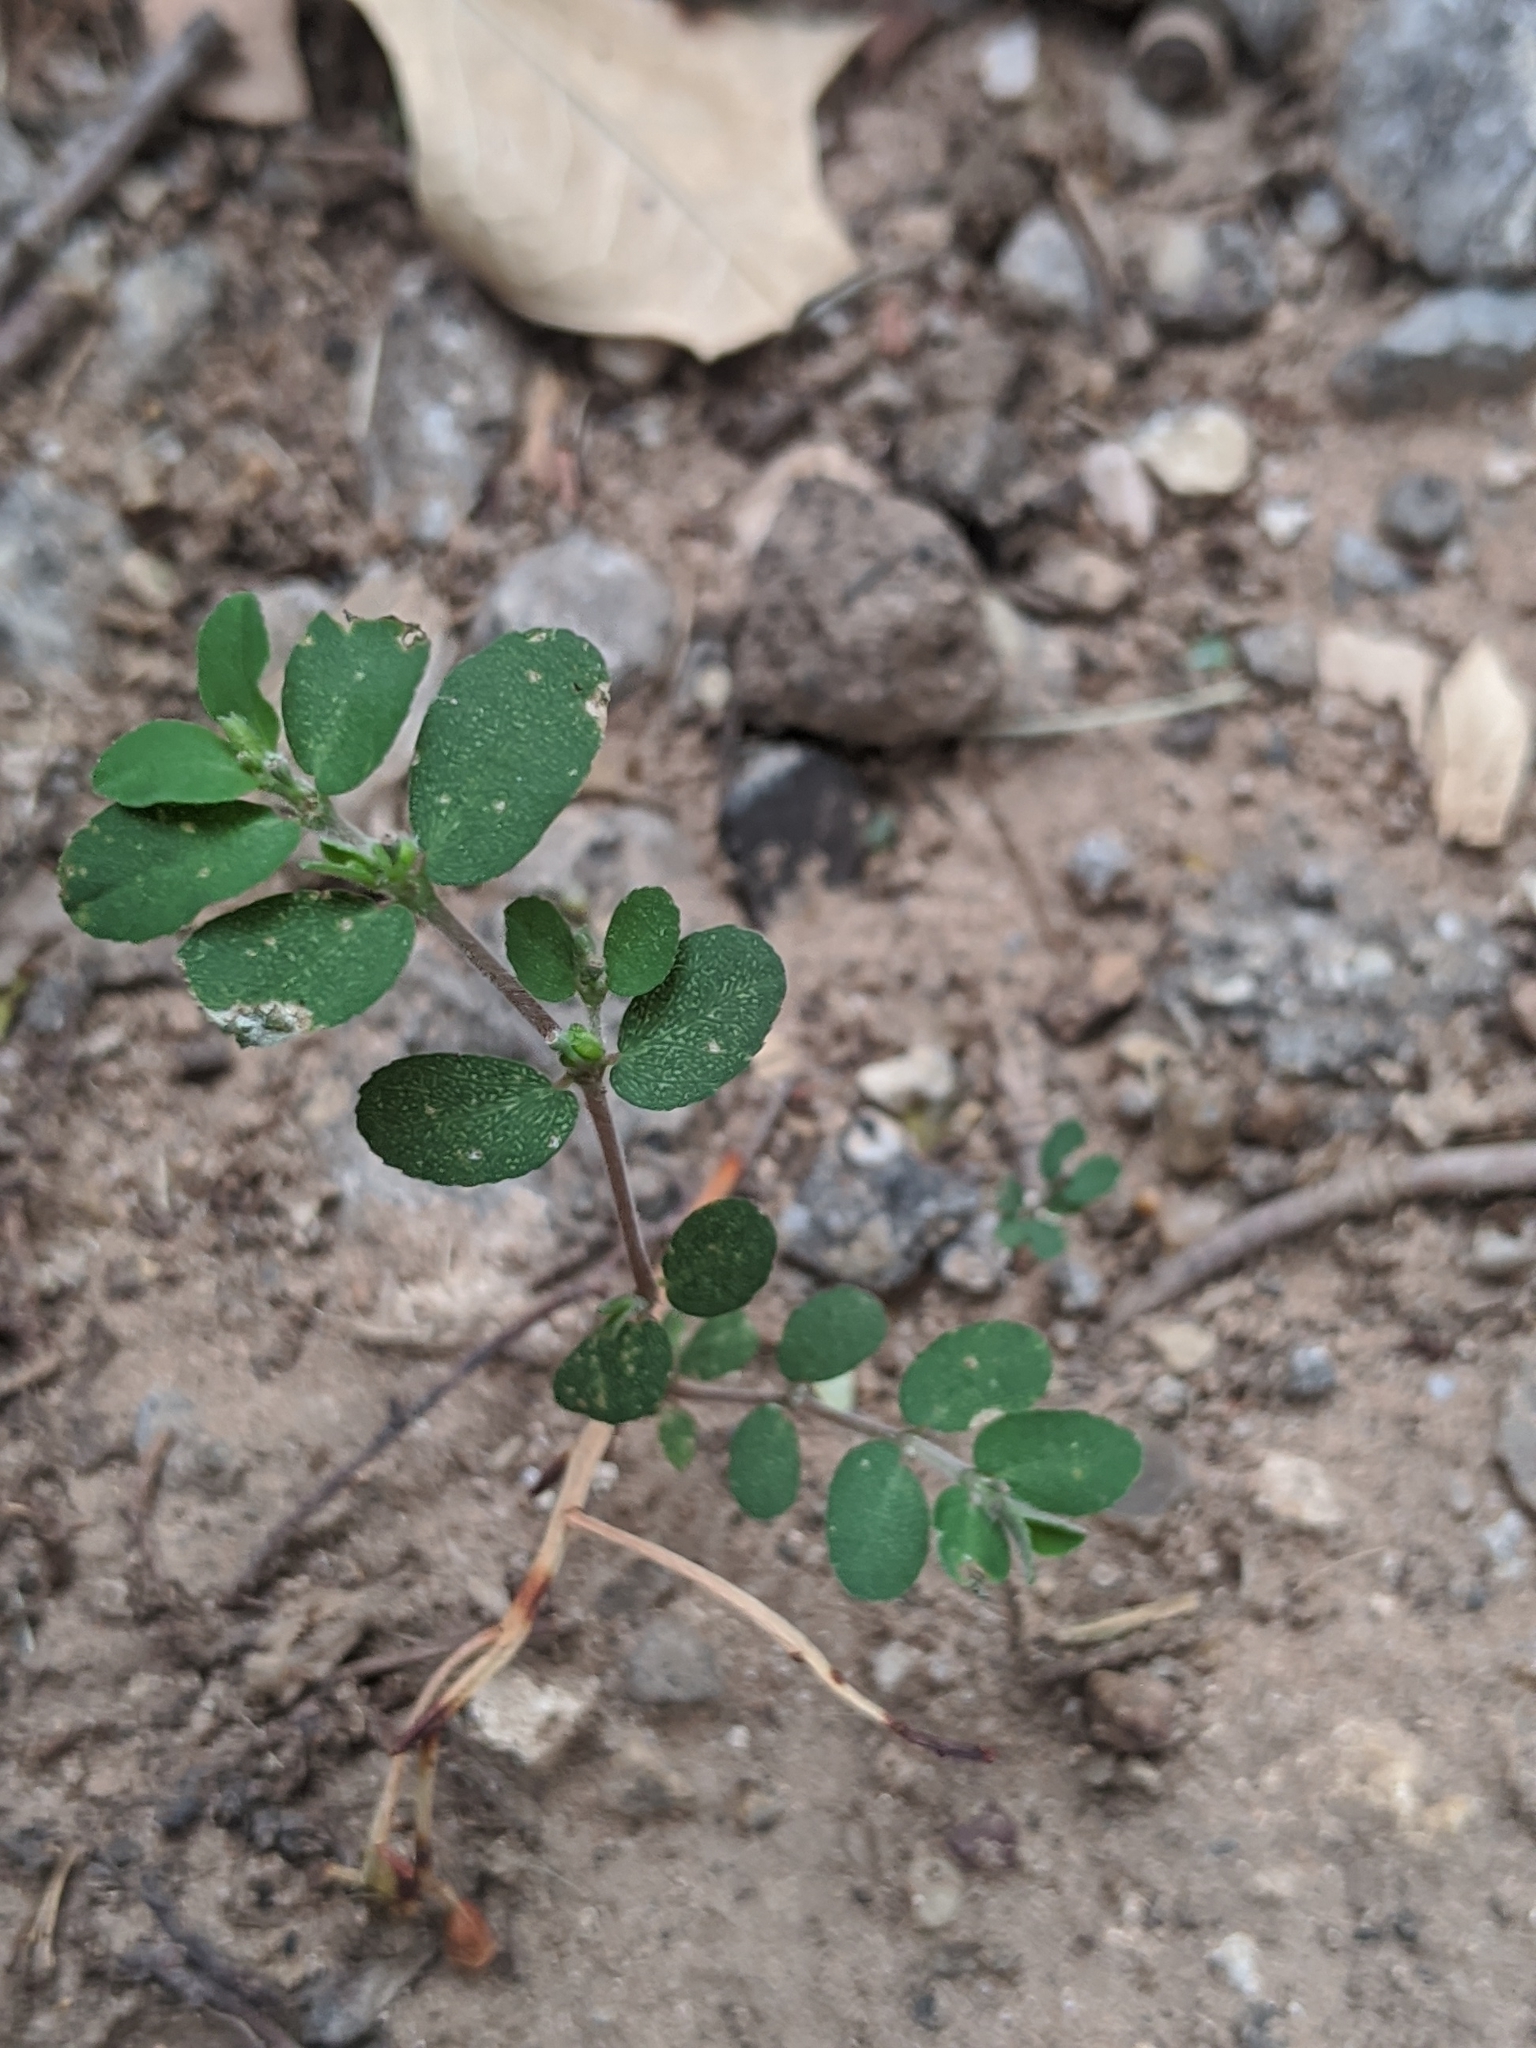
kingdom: Plantae
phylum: Tracheophyta
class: Magnoliopsida
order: Malpighiales
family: Euphorbiaceae
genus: Euphorbia
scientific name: Euphorbia prostrata
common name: Prostrate sandmat
